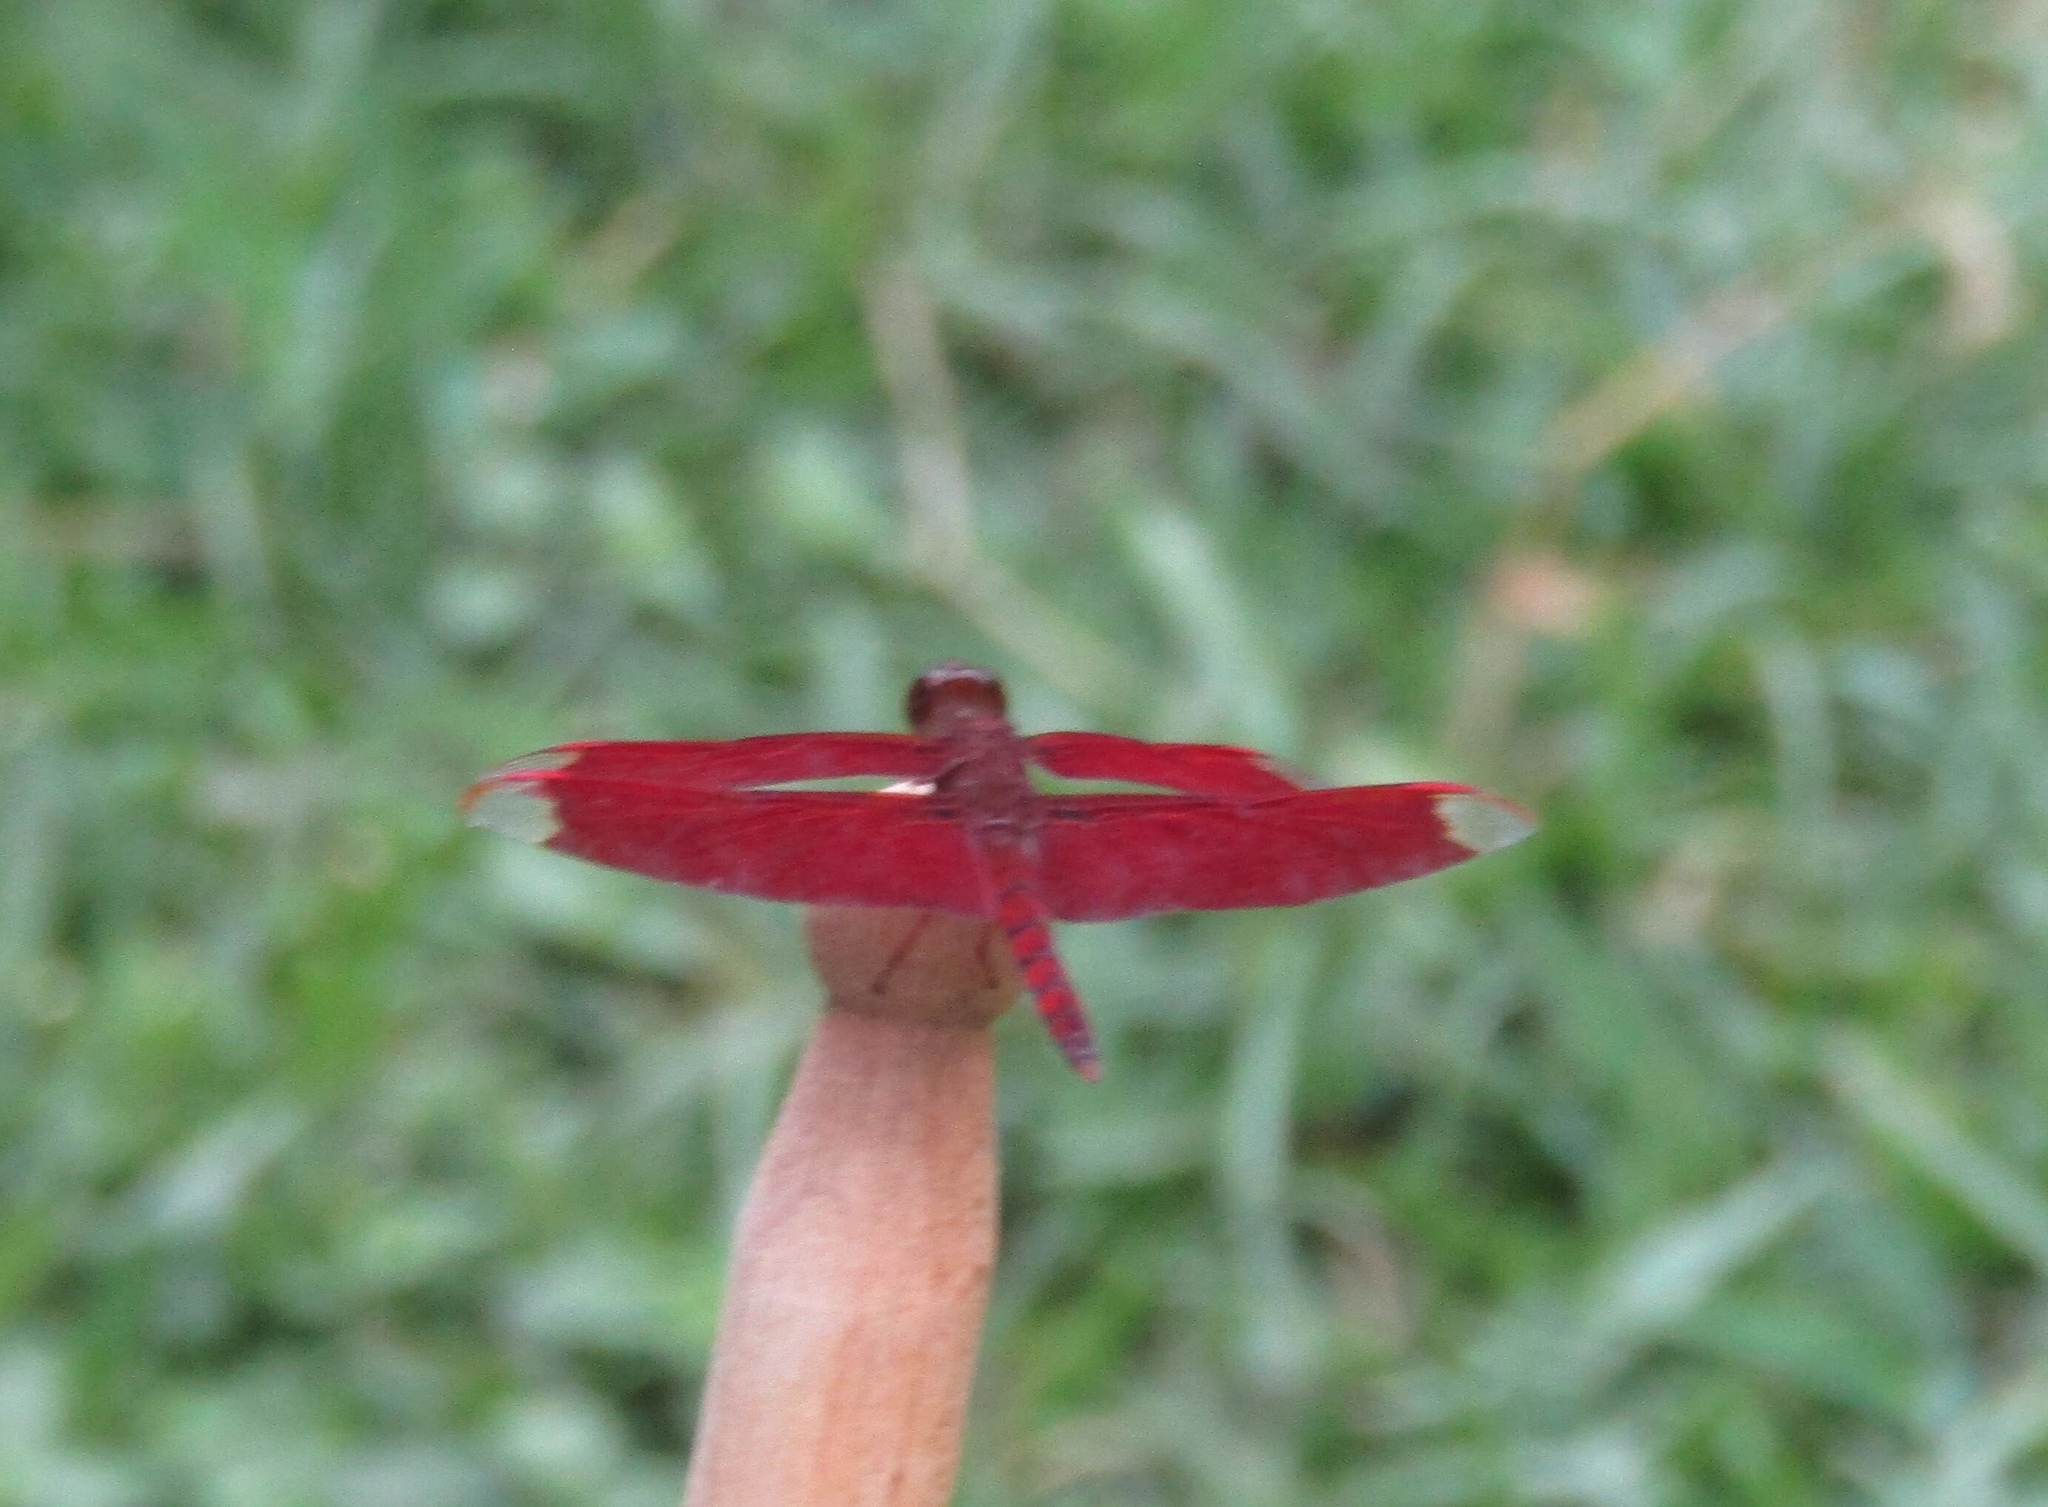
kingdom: Animalia
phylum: Arthropoda
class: Insecta
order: Odonata
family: Libellulidae
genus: Neurothemis
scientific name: Neurothemis fulvia
